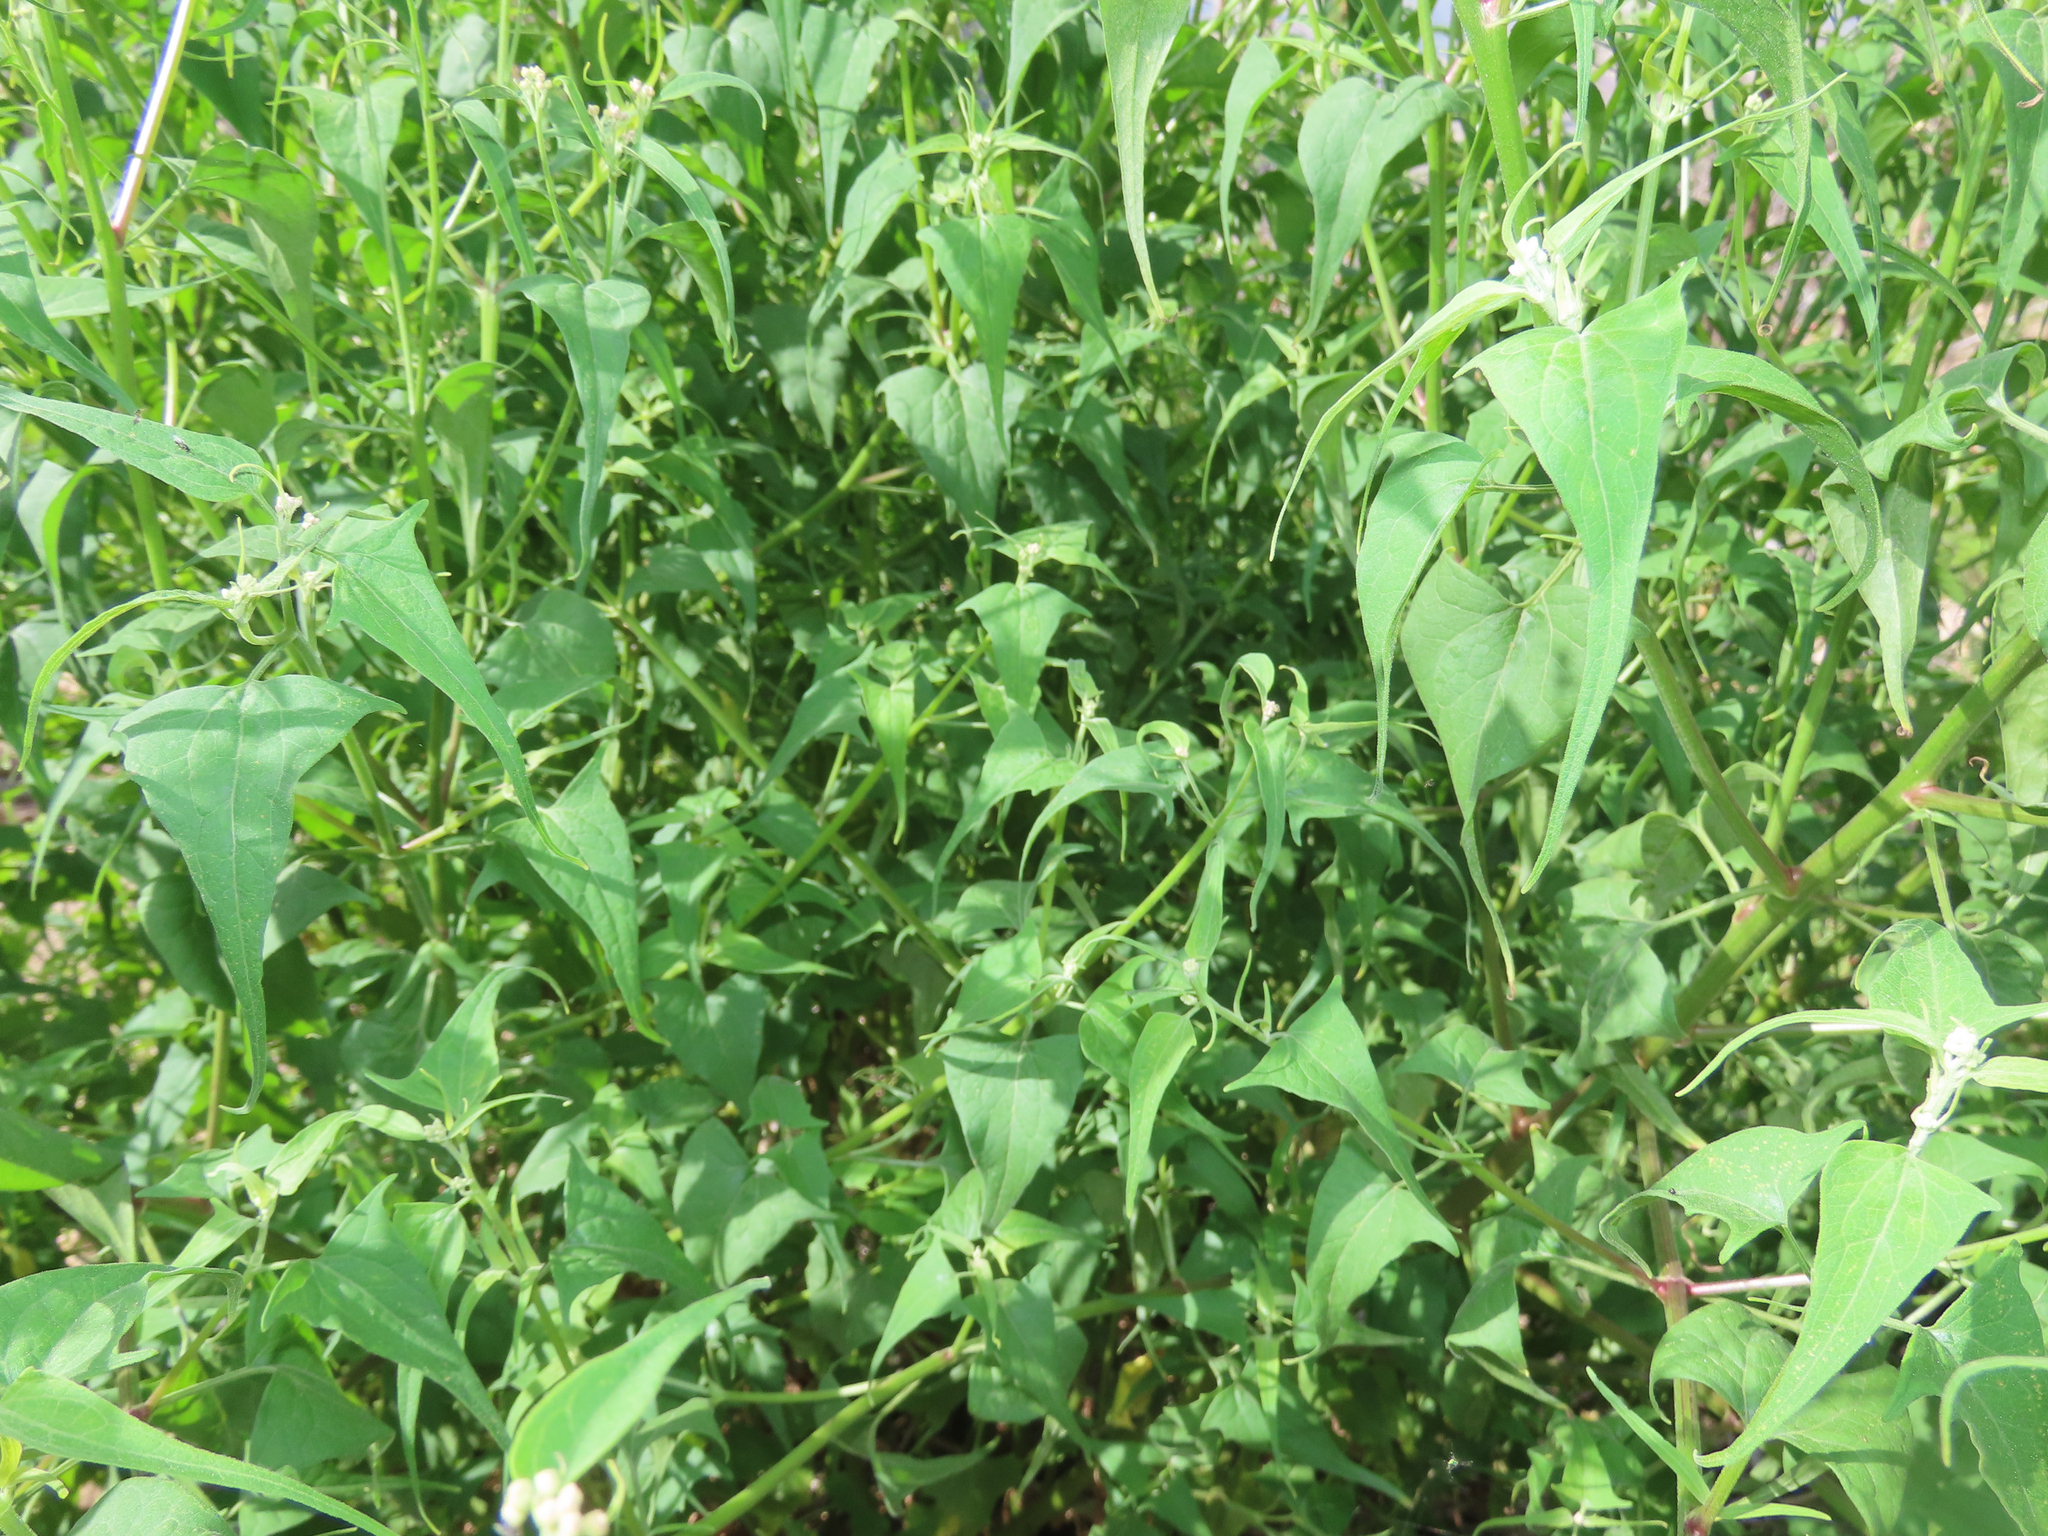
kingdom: Plantae
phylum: Tracheophyta
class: Magnoliopsida
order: Asterales
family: Asteraceae
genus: Pericome
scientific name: Pericome caudata
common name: Taperleaf
